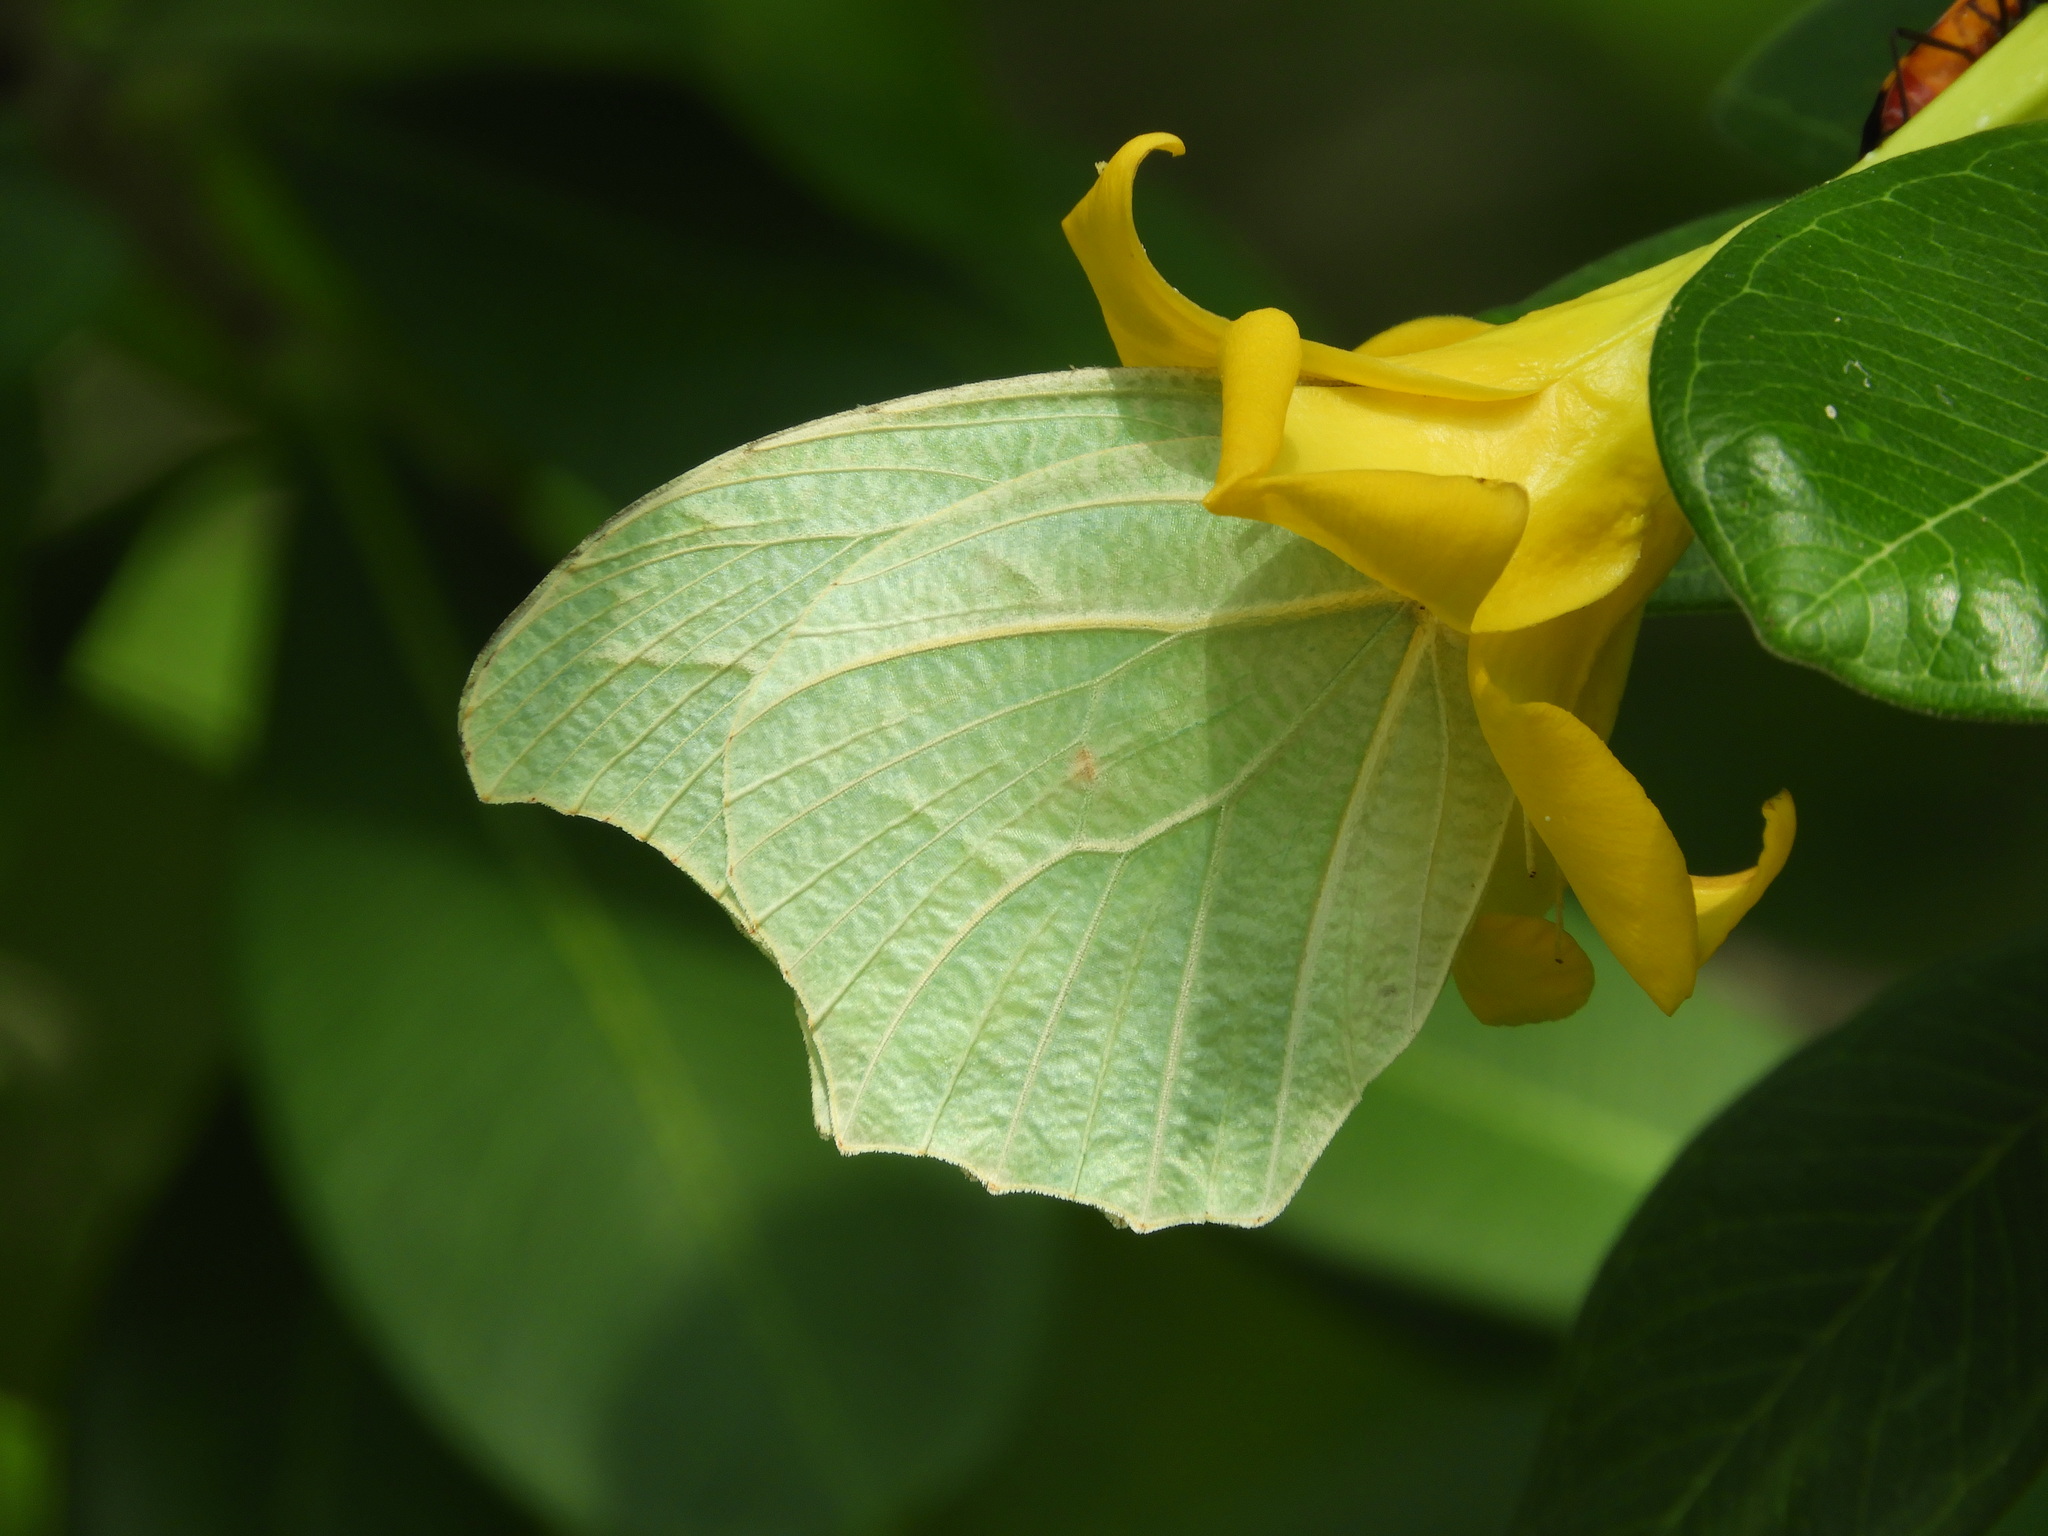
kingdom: Animalia
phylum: Arthropoda
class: Insecta
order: Lepidoptera
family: Pieridae
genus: Anteos
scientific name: Anteos clorinde
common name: White angled sulphur
